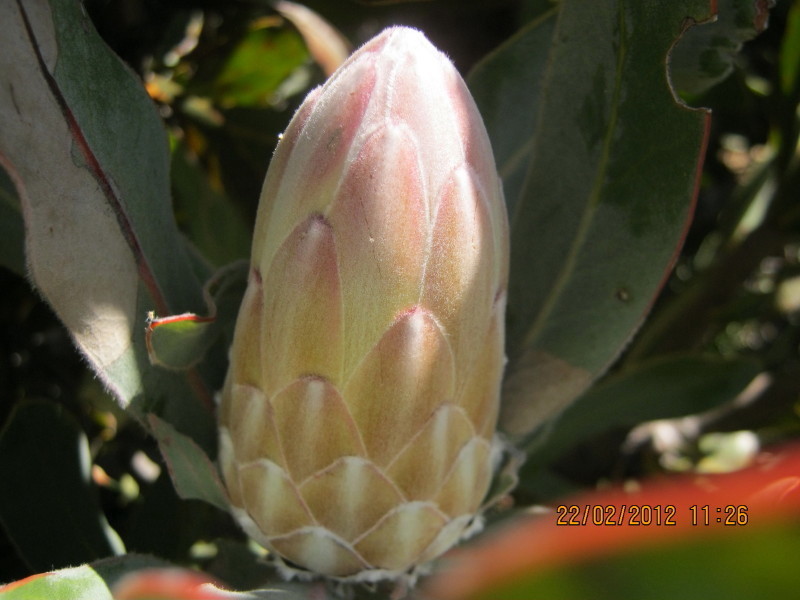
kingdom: Plantae
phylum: Tracheophyta
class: Magnoliopsida
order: Proteales
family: Proteaceae
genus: Protea
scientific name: Protea lorifolia
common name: Strap-leaved protea
